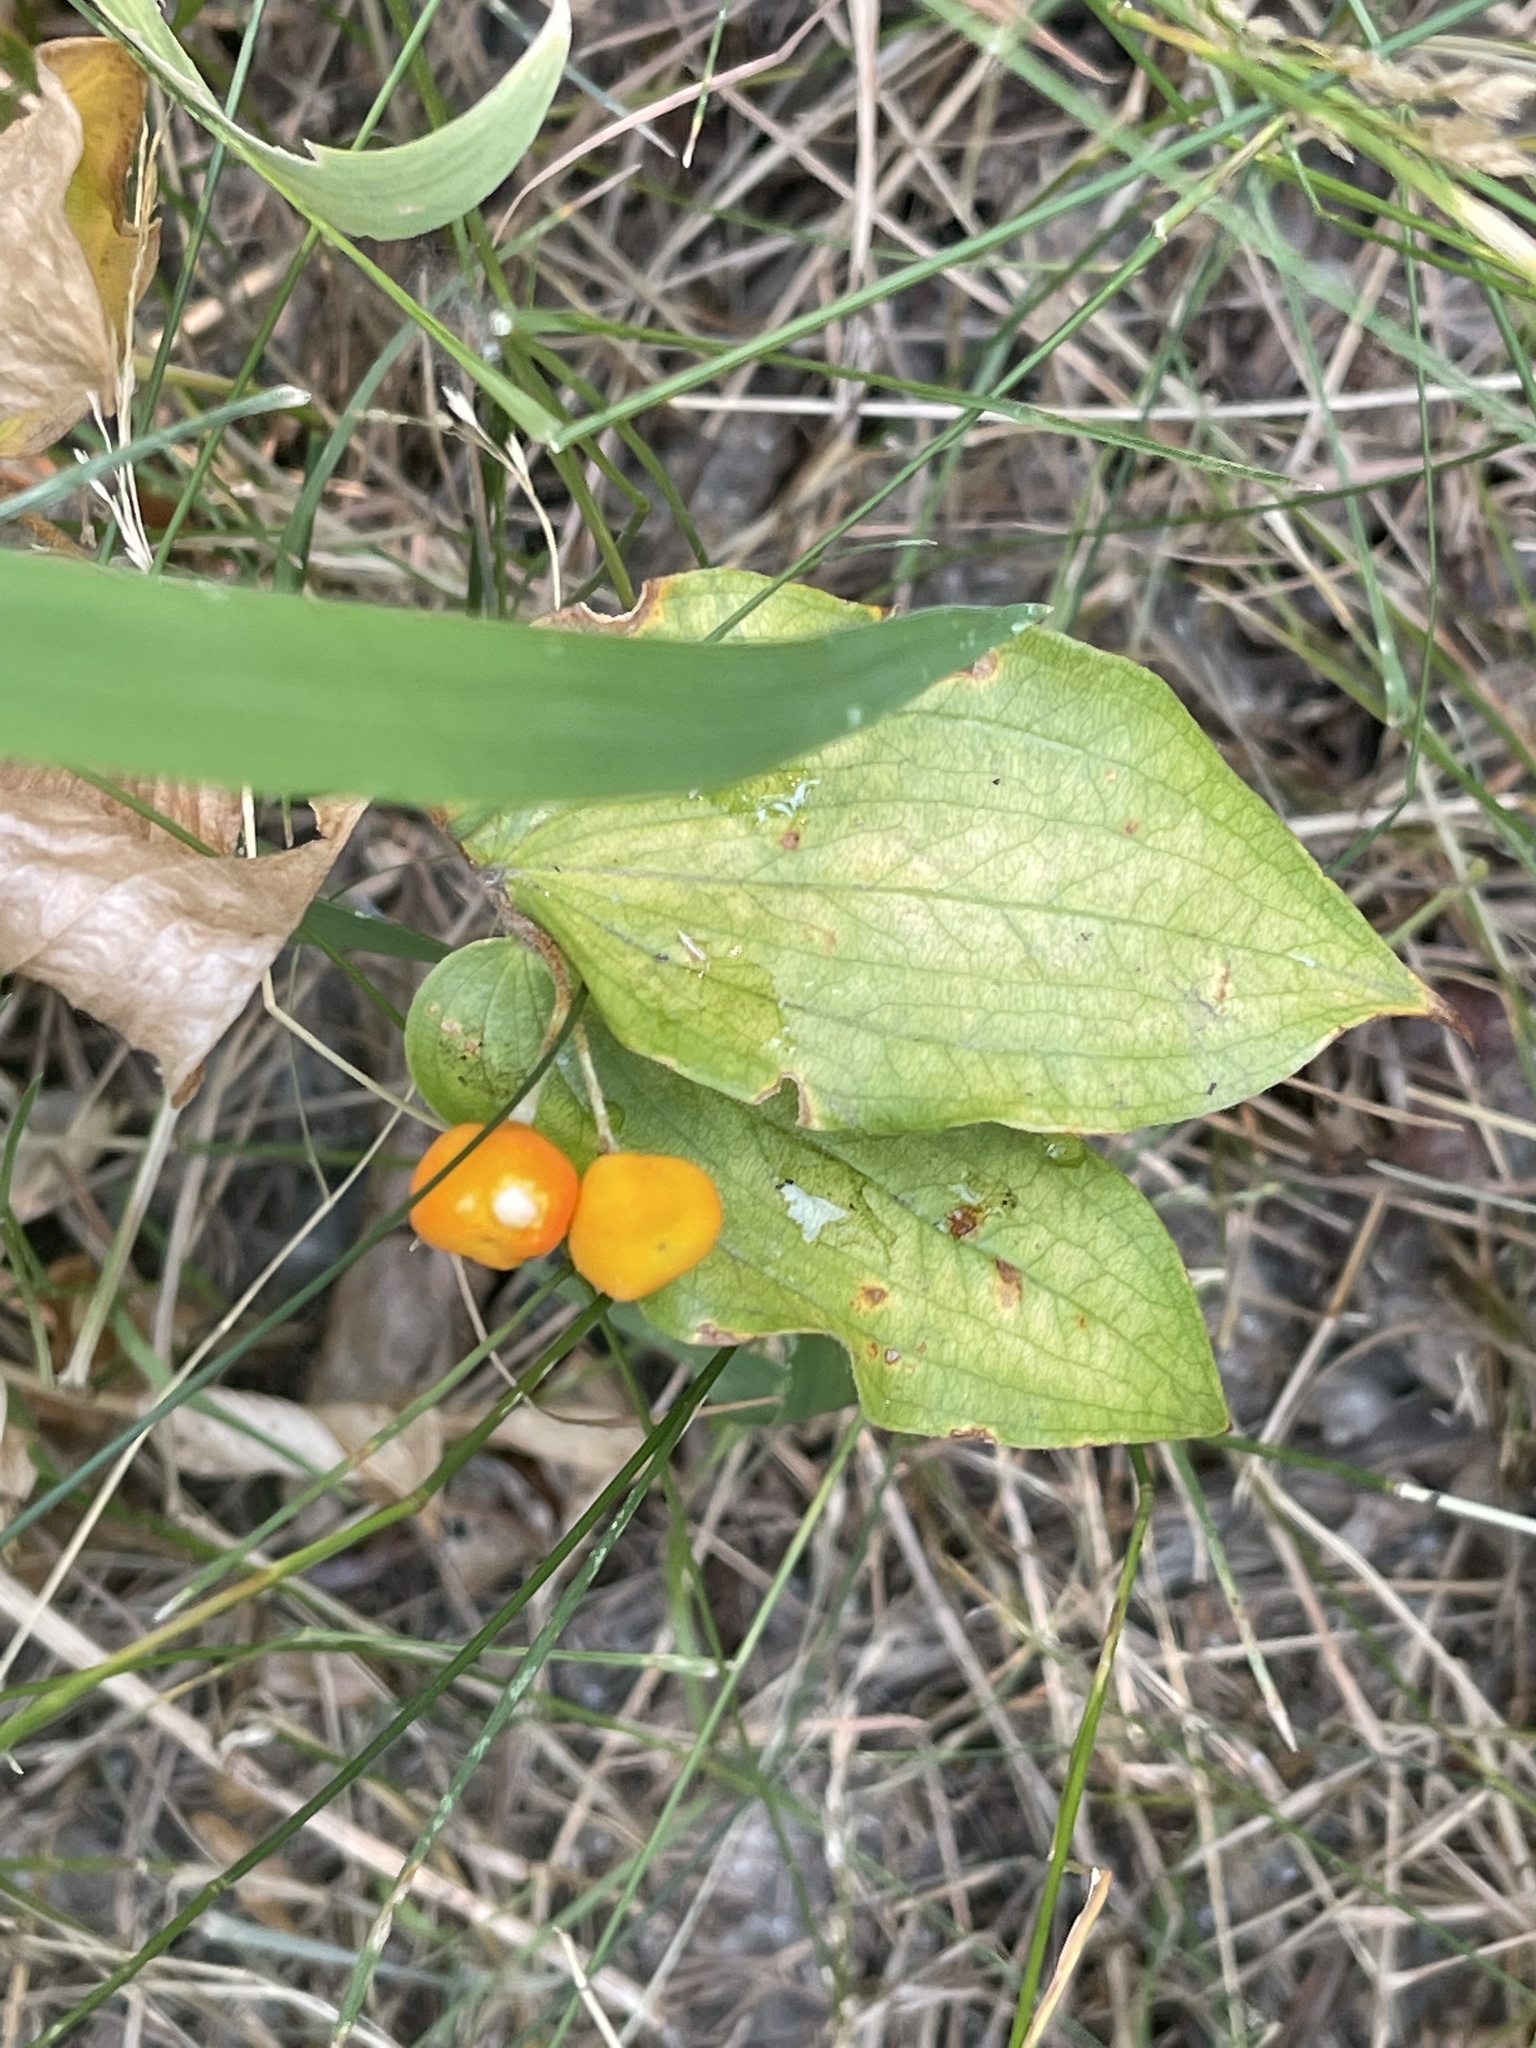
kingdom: Plantae
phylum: Tracheophyta
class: Liliopsida
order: Liliales
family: Liliaceae
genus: Prosartes
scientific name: Prosartes trachycarpa
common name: Rough-fruit fairy-bells
